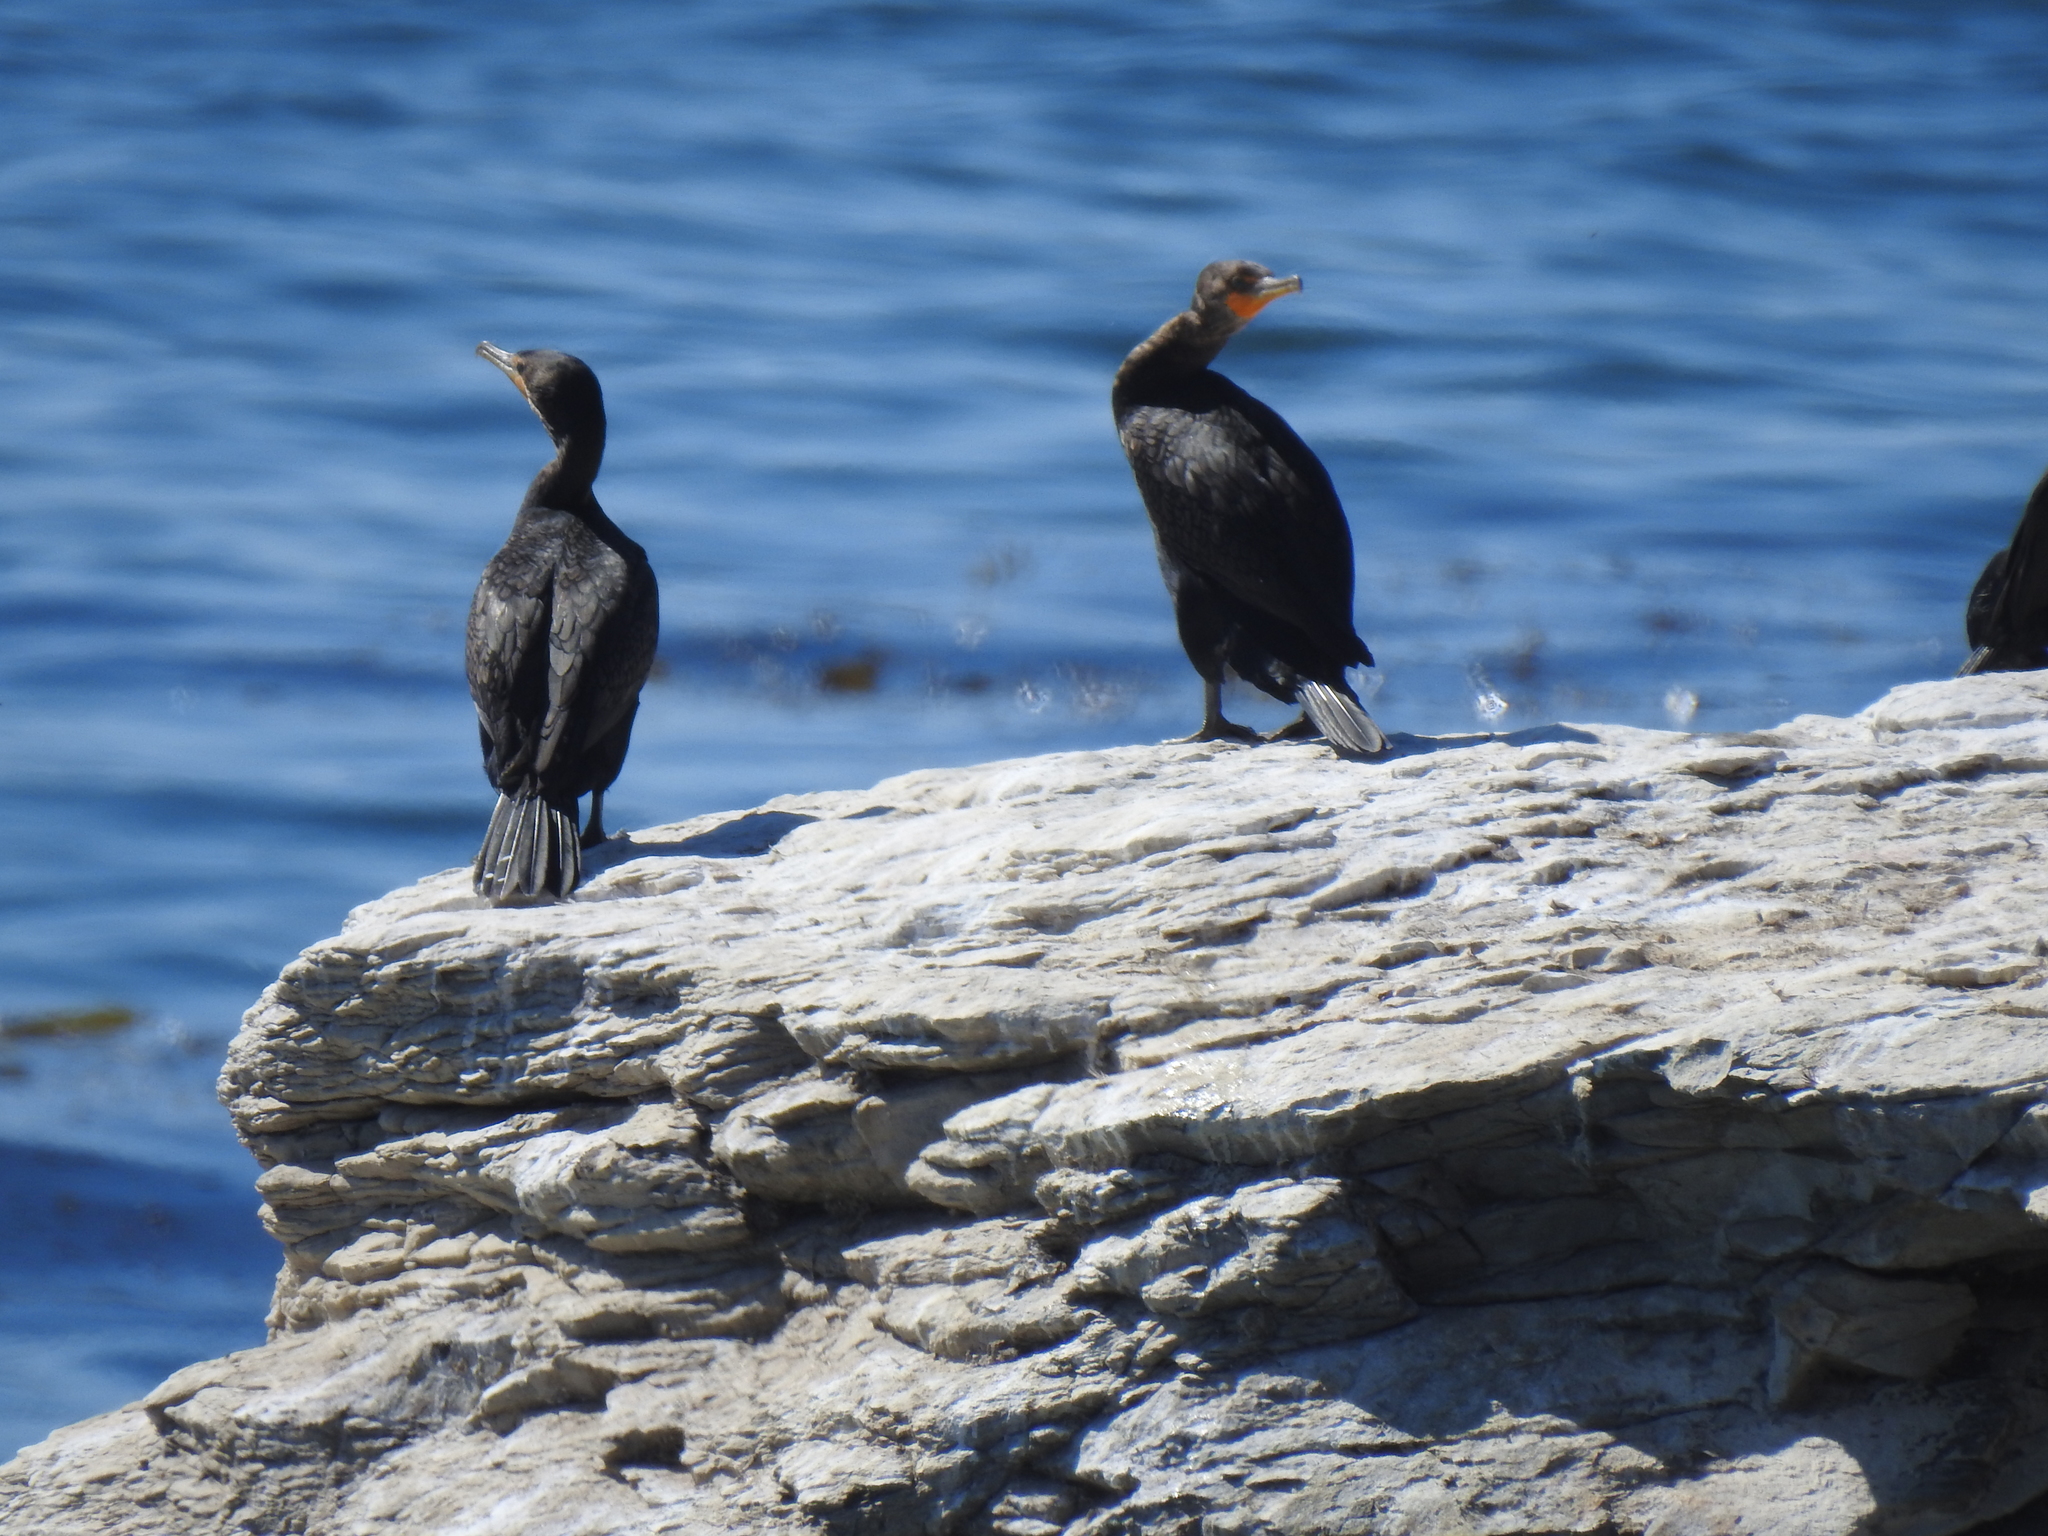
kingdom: Animalia
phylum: Chordata
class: Aves
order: Suliformes
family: Phalacrocoracidae
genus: Phalacrocorax
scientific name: Phalacrocorax auritus
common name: Double-crested cormorant
